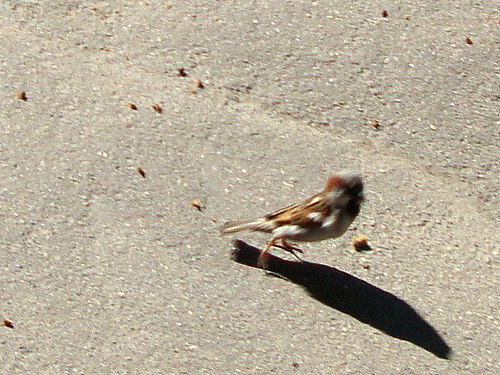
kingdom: Animalia
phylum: Chordata
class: Aves
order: Passeriformes
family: Passeridae
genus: Passer
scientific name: Passer domesticus
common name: House sparrow
